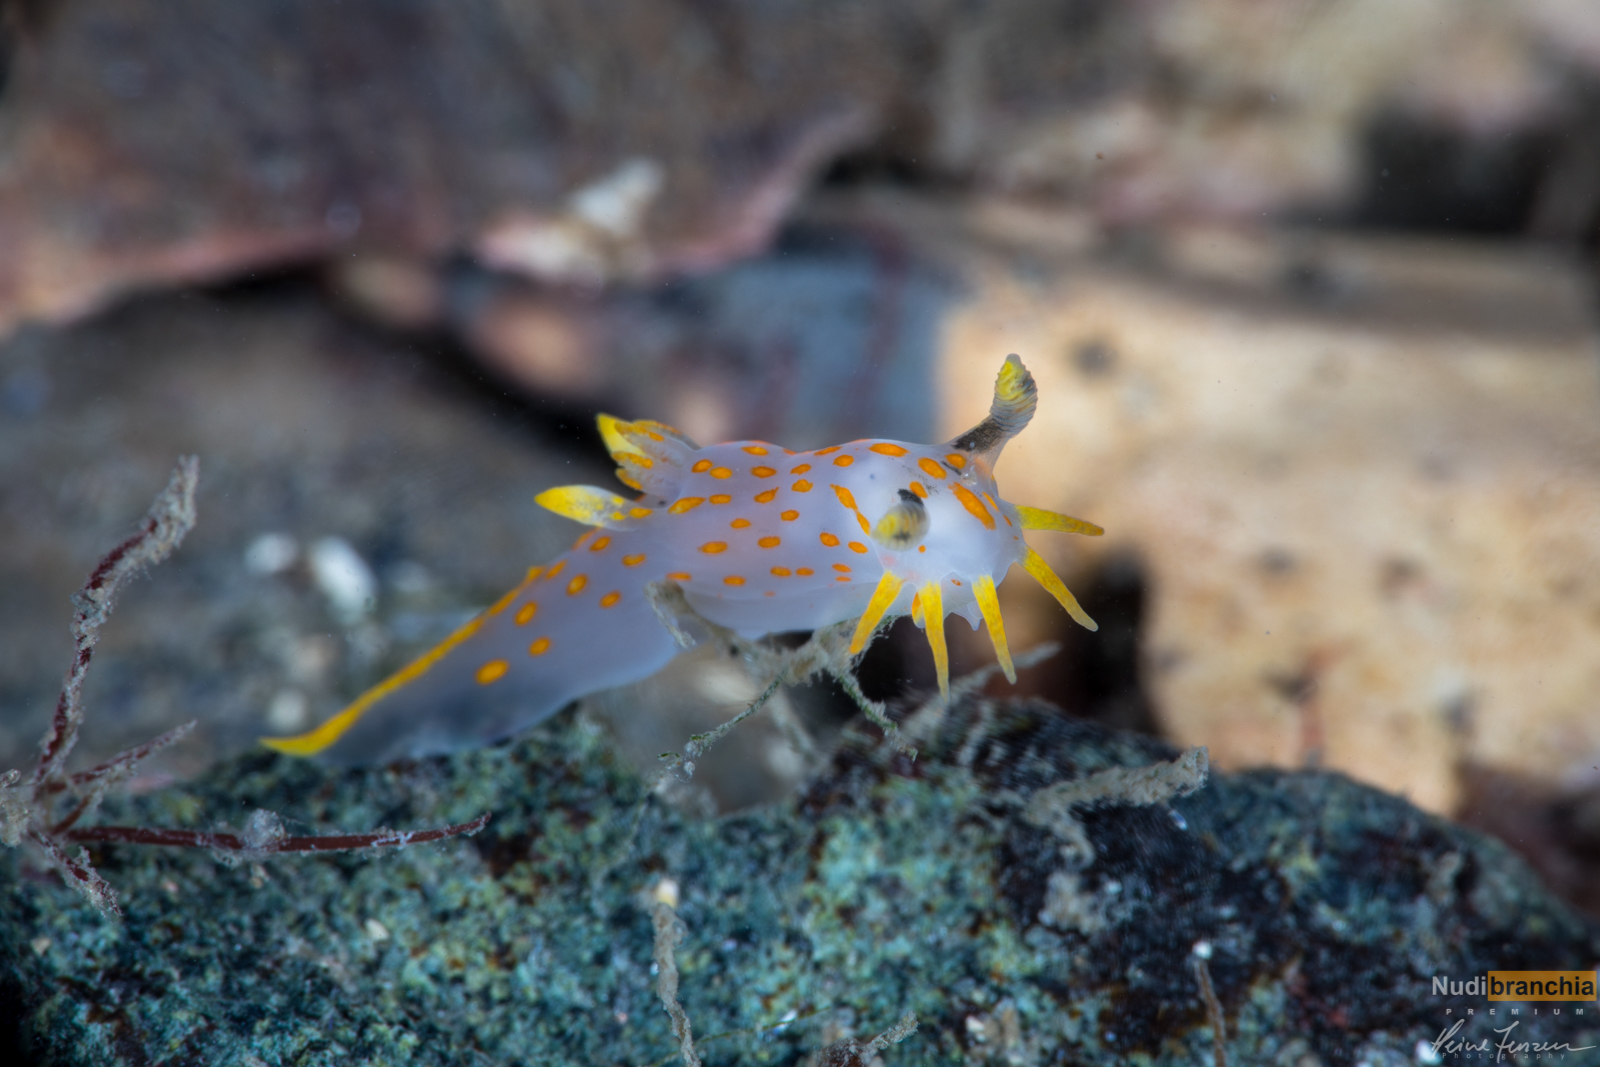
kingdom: Animalia
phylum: Mollusca
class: Gastropoda
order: Nudibranchia
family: Polyceridae
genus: Polycera
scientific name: Polycera quadrilineata
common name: Four-striped polycera
